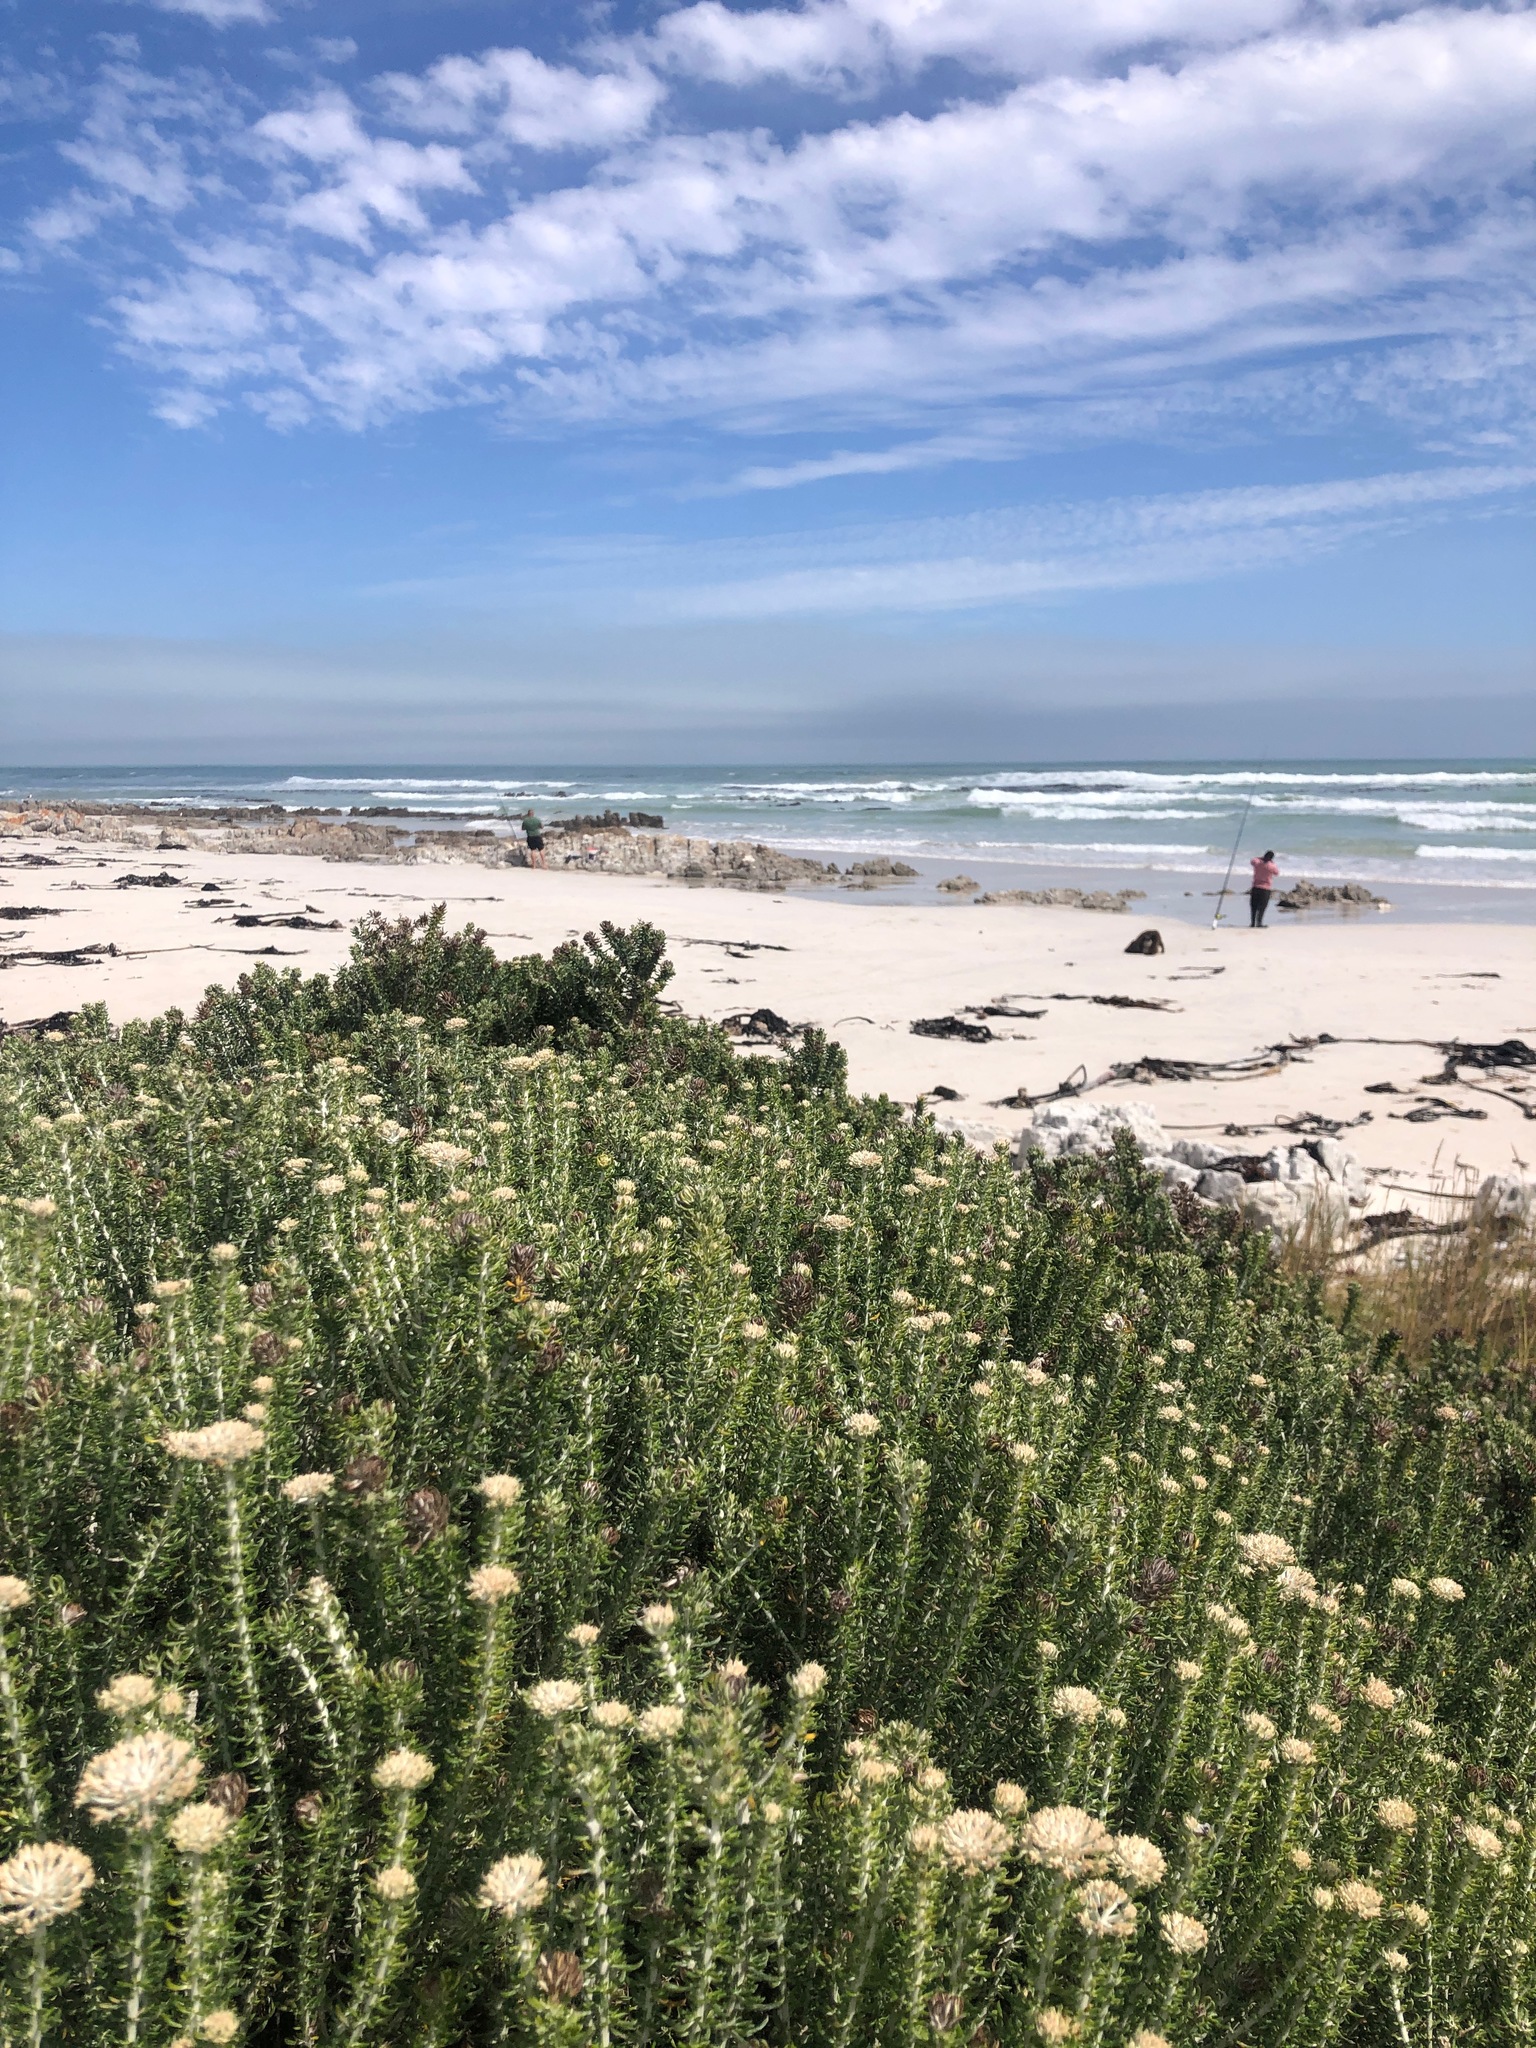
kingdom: Plantae
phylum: Tracheophyta
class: Magnoliopsida
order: Asterales
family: Asteraceae
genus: Metalasia
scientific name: Metalasia muricata
